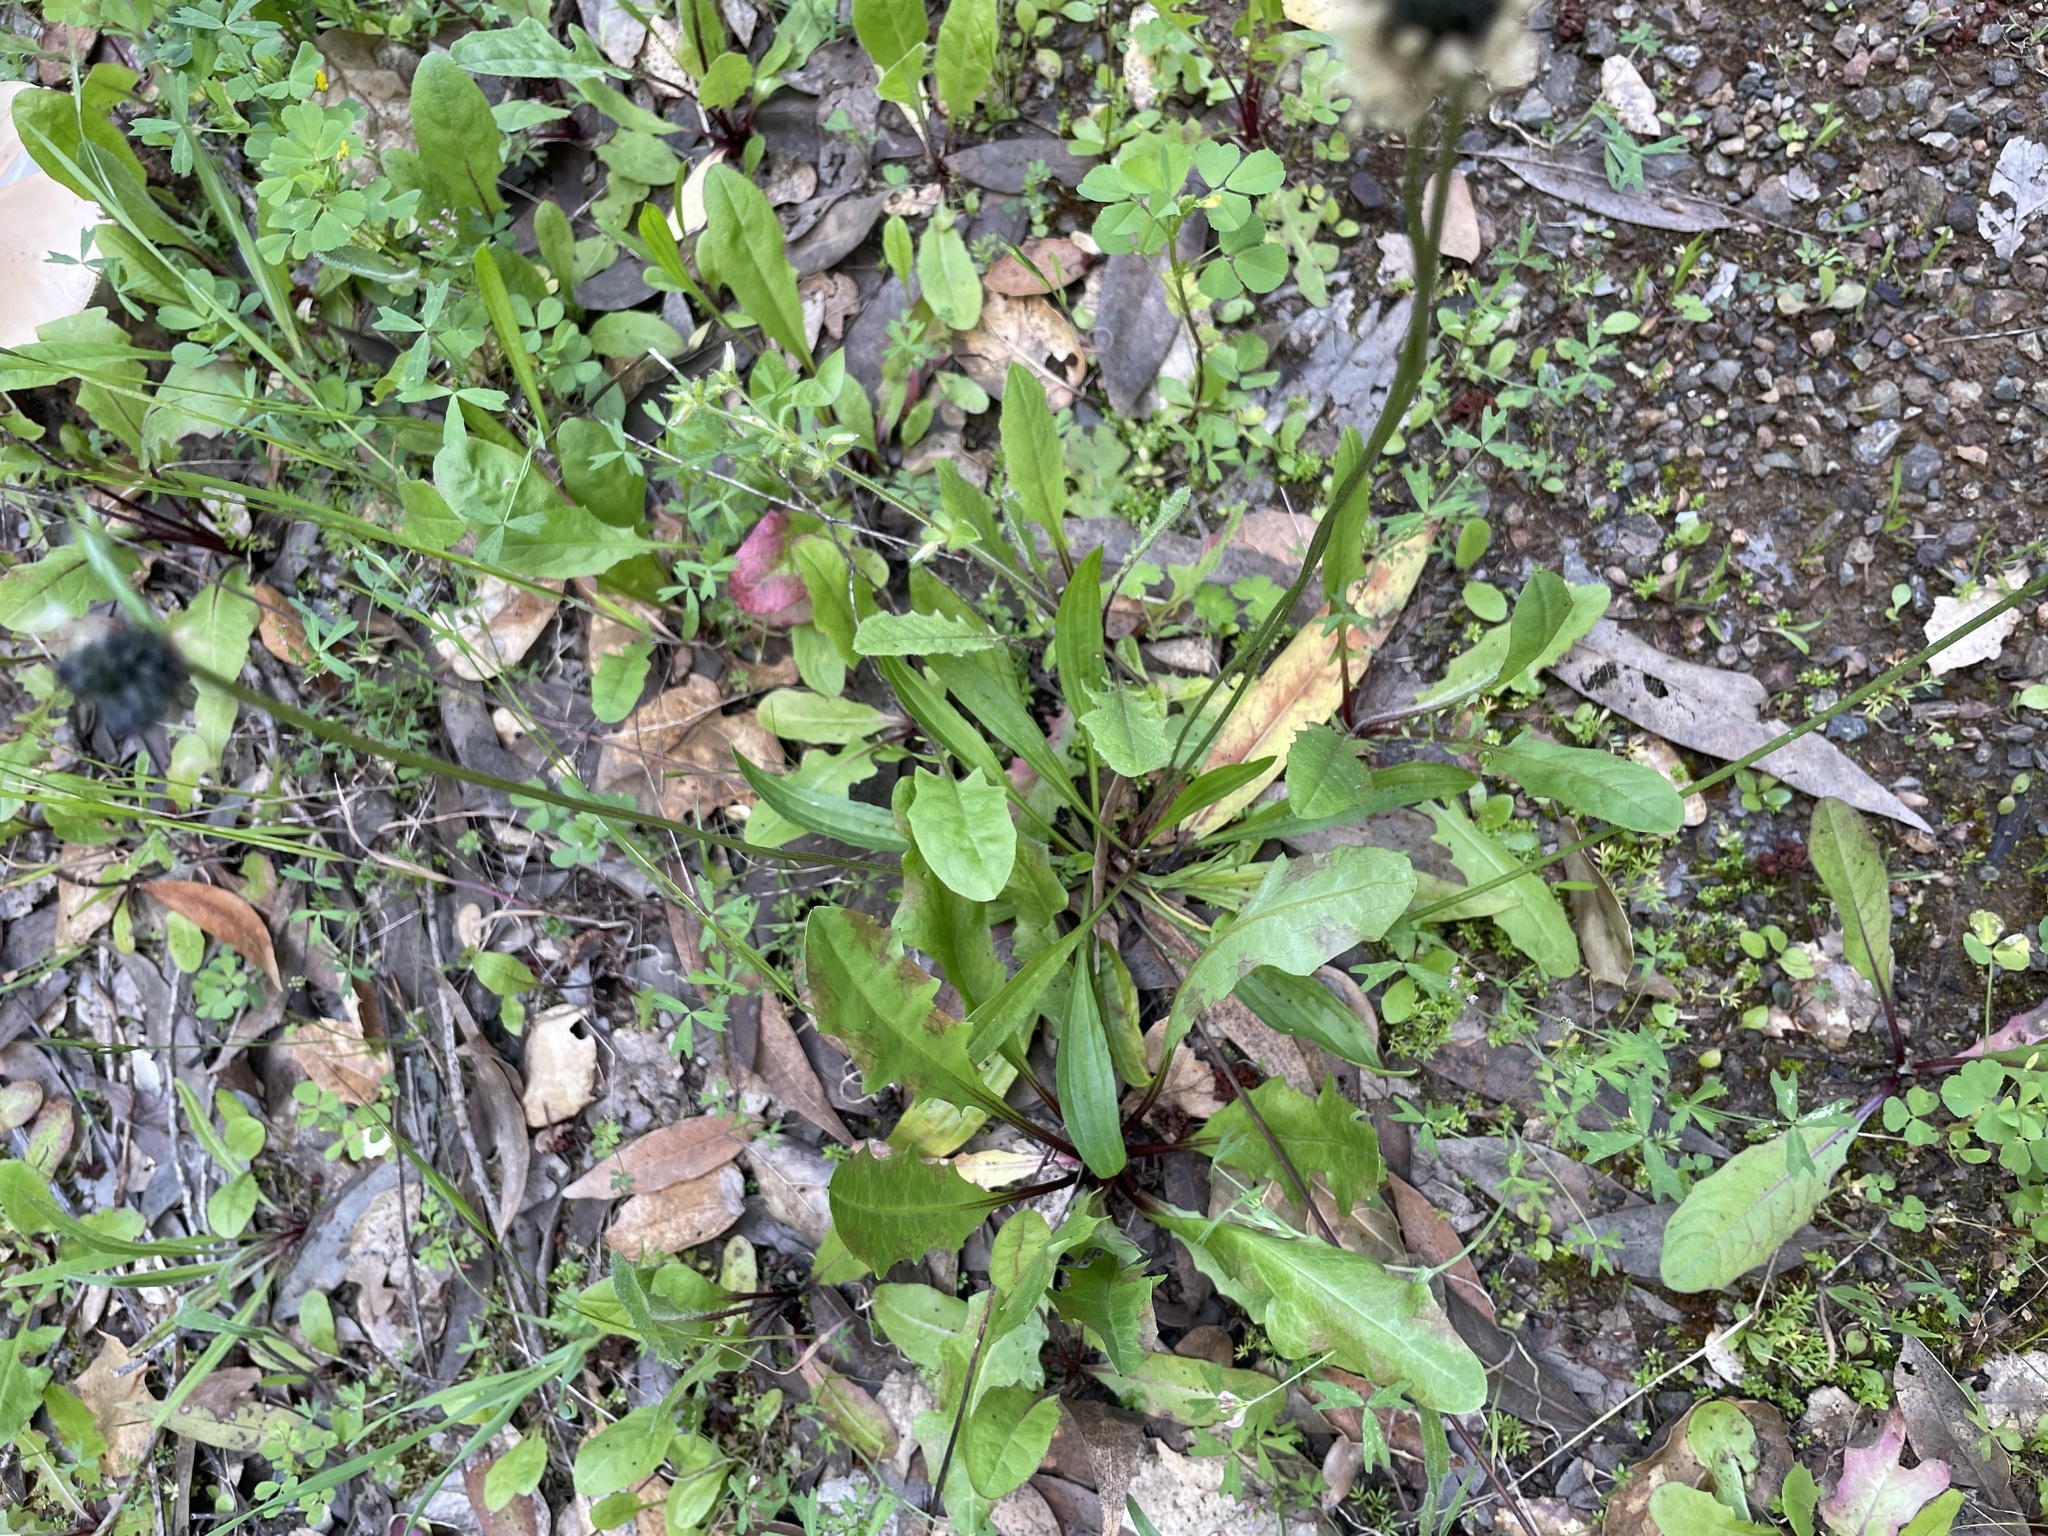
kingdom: Plantae
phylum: Tracheophyta
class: Magnoliopsida
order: Lamiales
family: Plantaginaceae
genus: Plantago
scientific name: Plantago lanceolata
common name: Ribwort plantain
